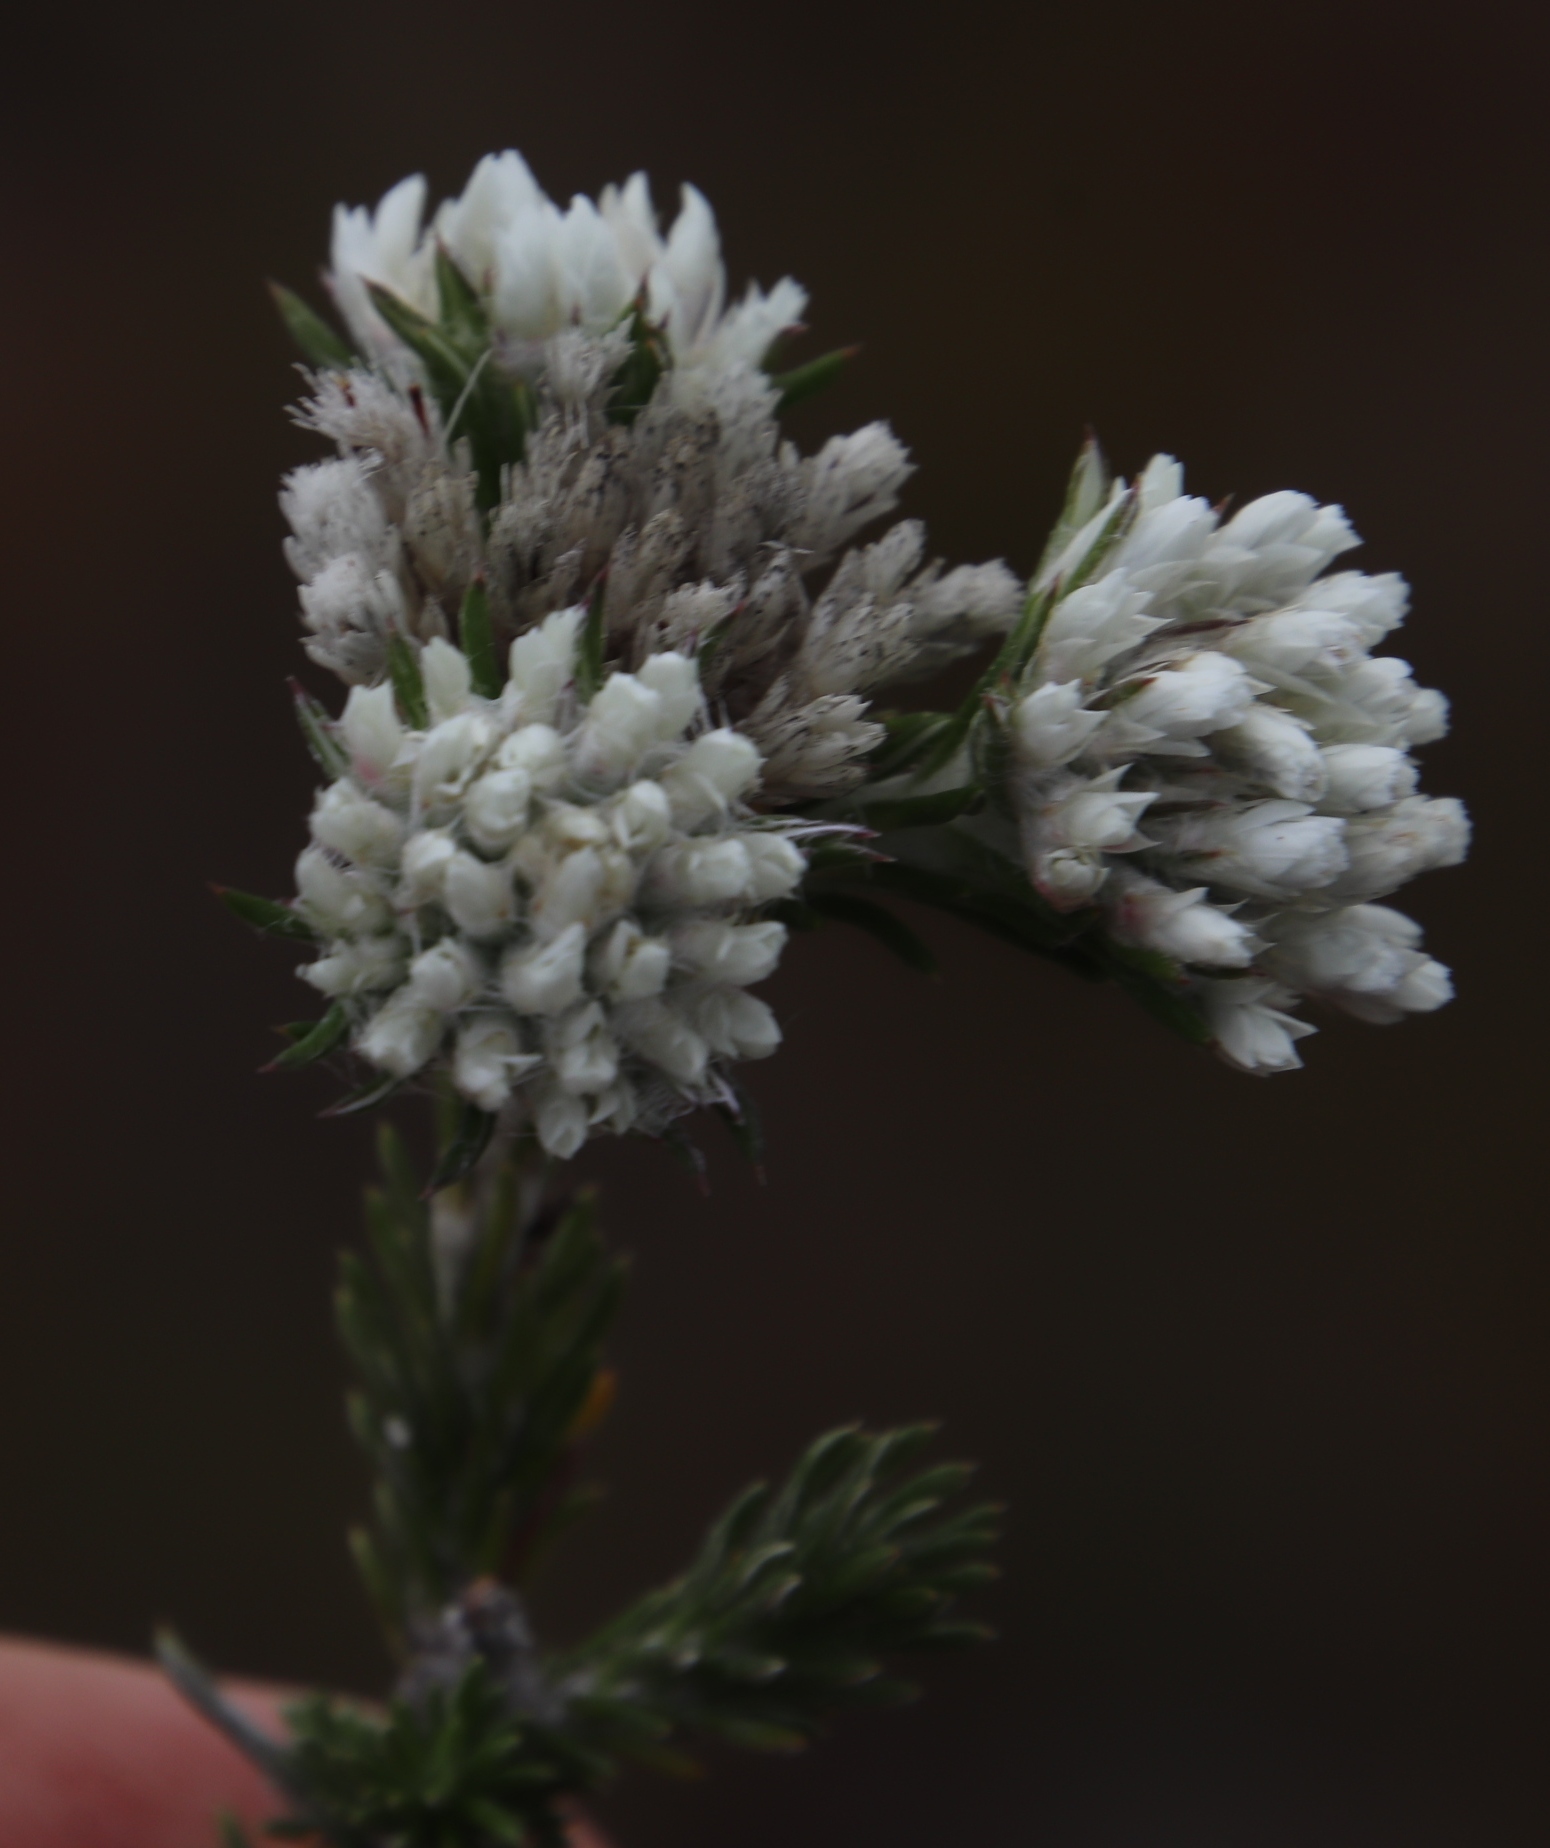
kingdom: Plantae
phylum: Tracheophyta
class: Magnoliopsida
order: Asterales
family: Asteraceae
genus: Metalasia
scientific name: Metalasia compacta
